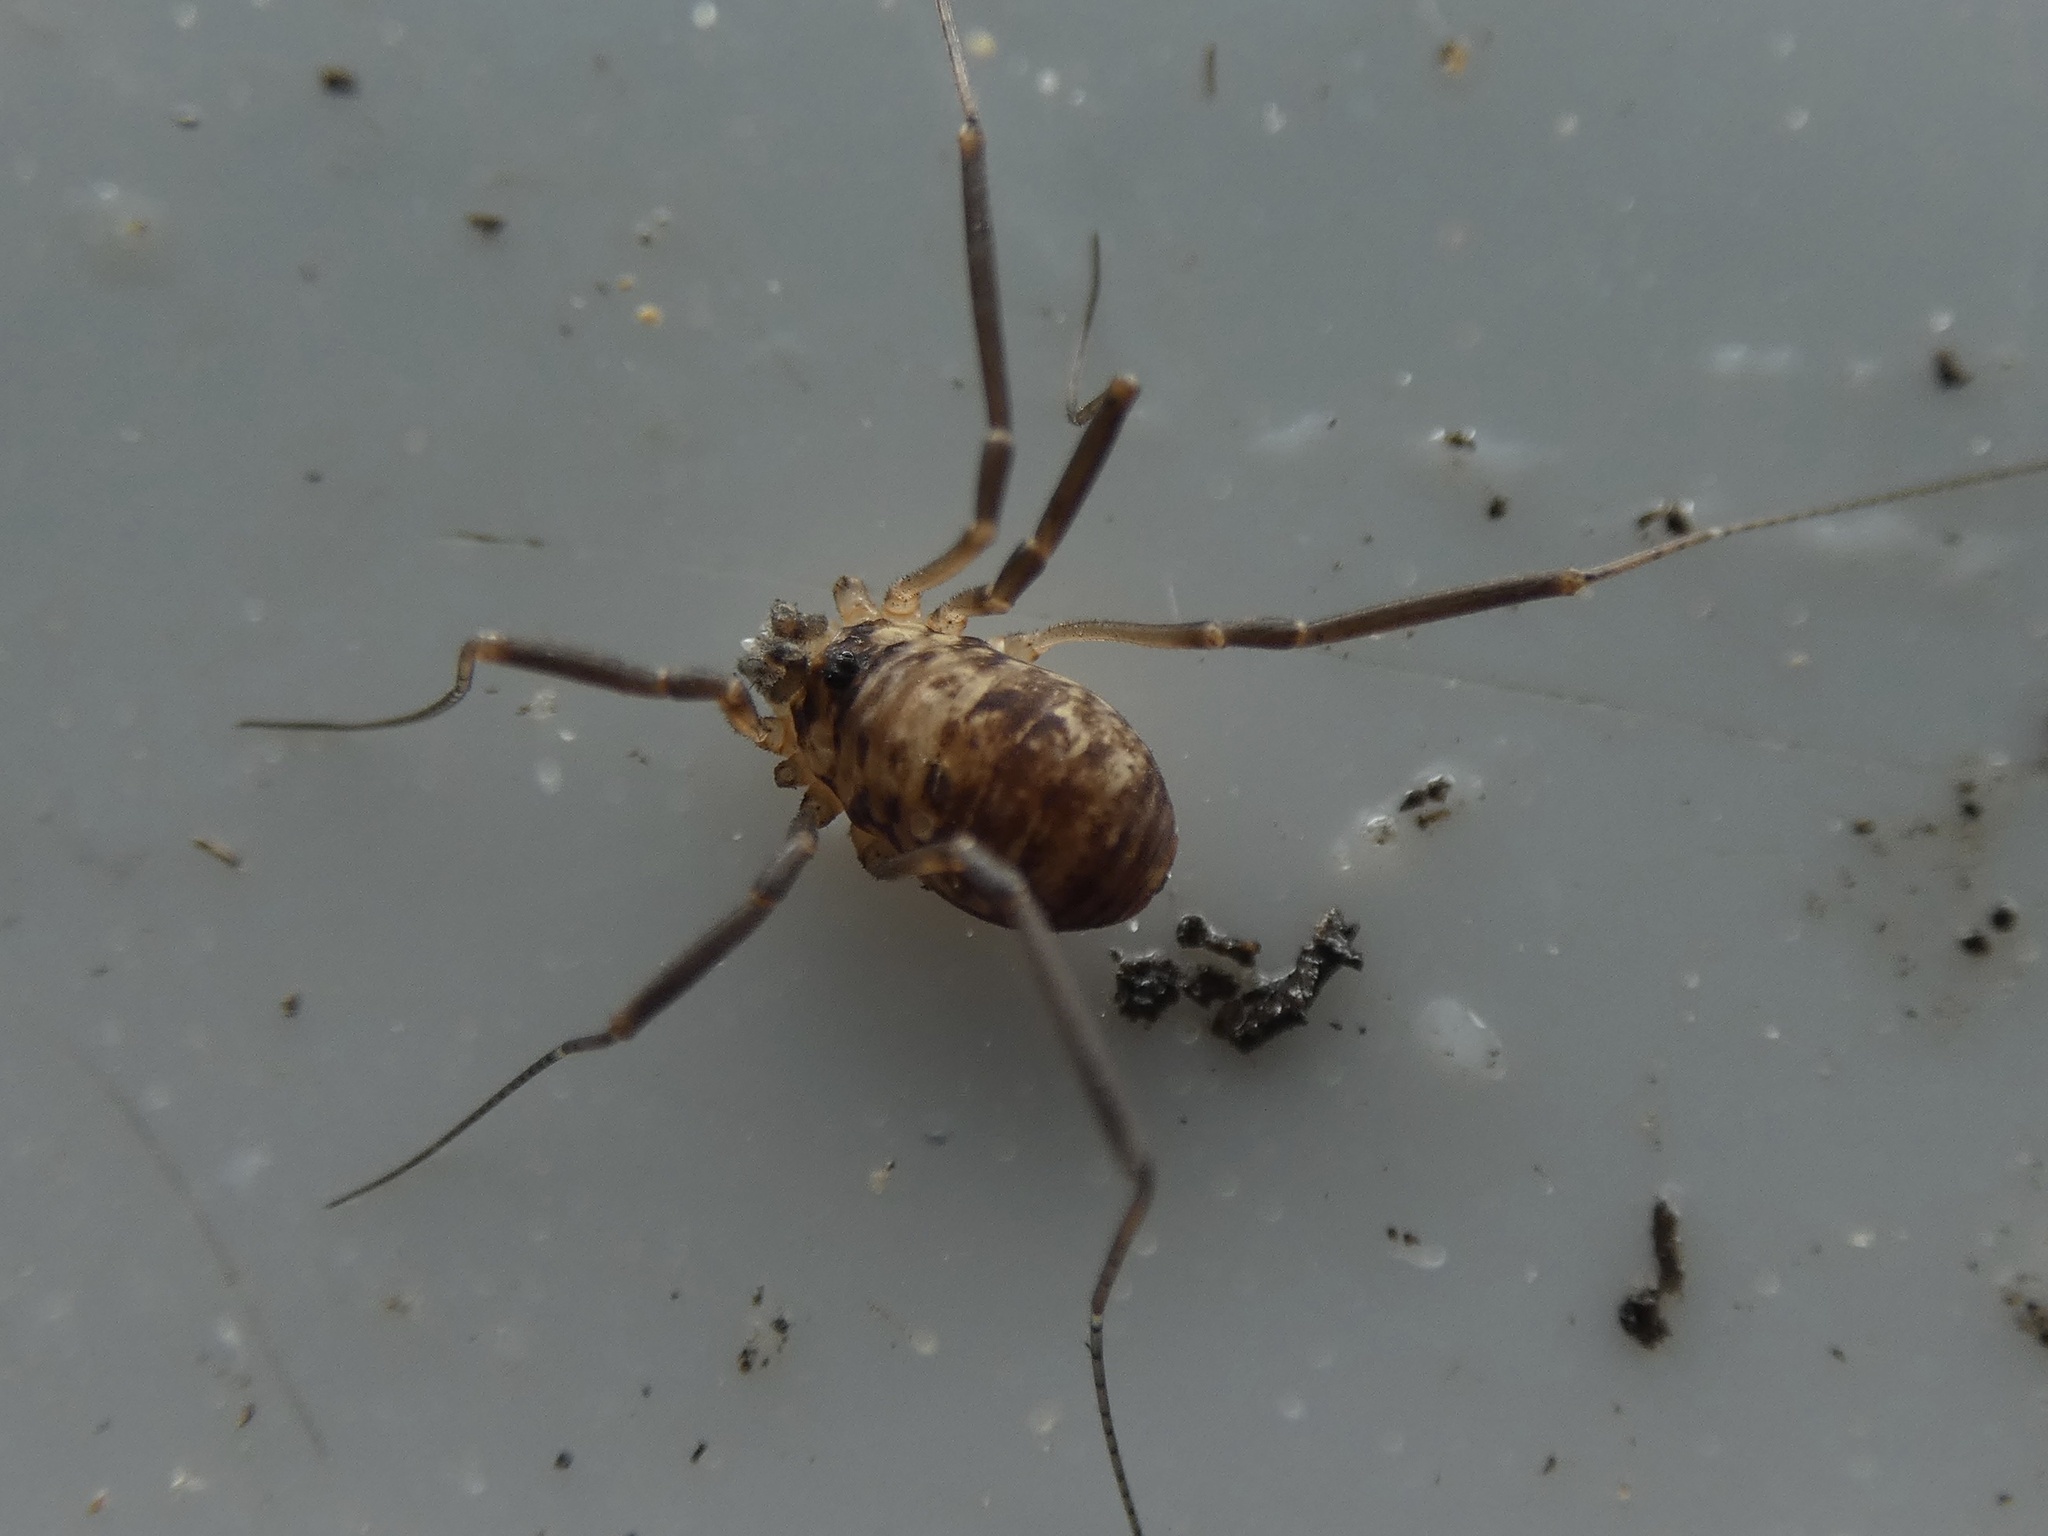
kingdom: Animalia
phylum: Arthropoda
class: Arachnida
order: Opiliones
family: Phalangiidae
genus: Dicranopalpus
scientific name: Dicranopalpus larvatus
